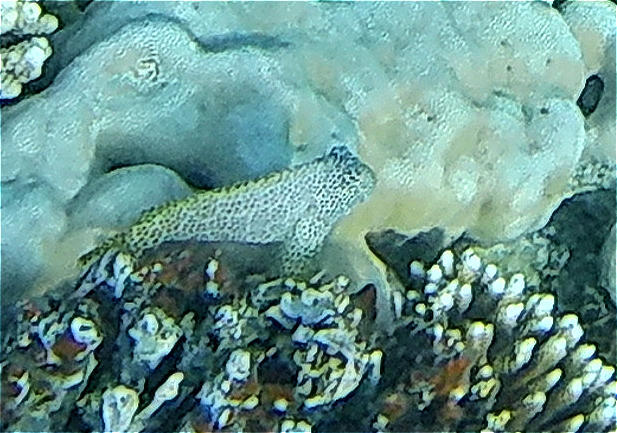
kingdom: Animalia
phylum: Chordata
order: Perciformes
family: Blenniidae
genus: Exallias
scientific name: Exallias brevis
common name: Leopard blenny
